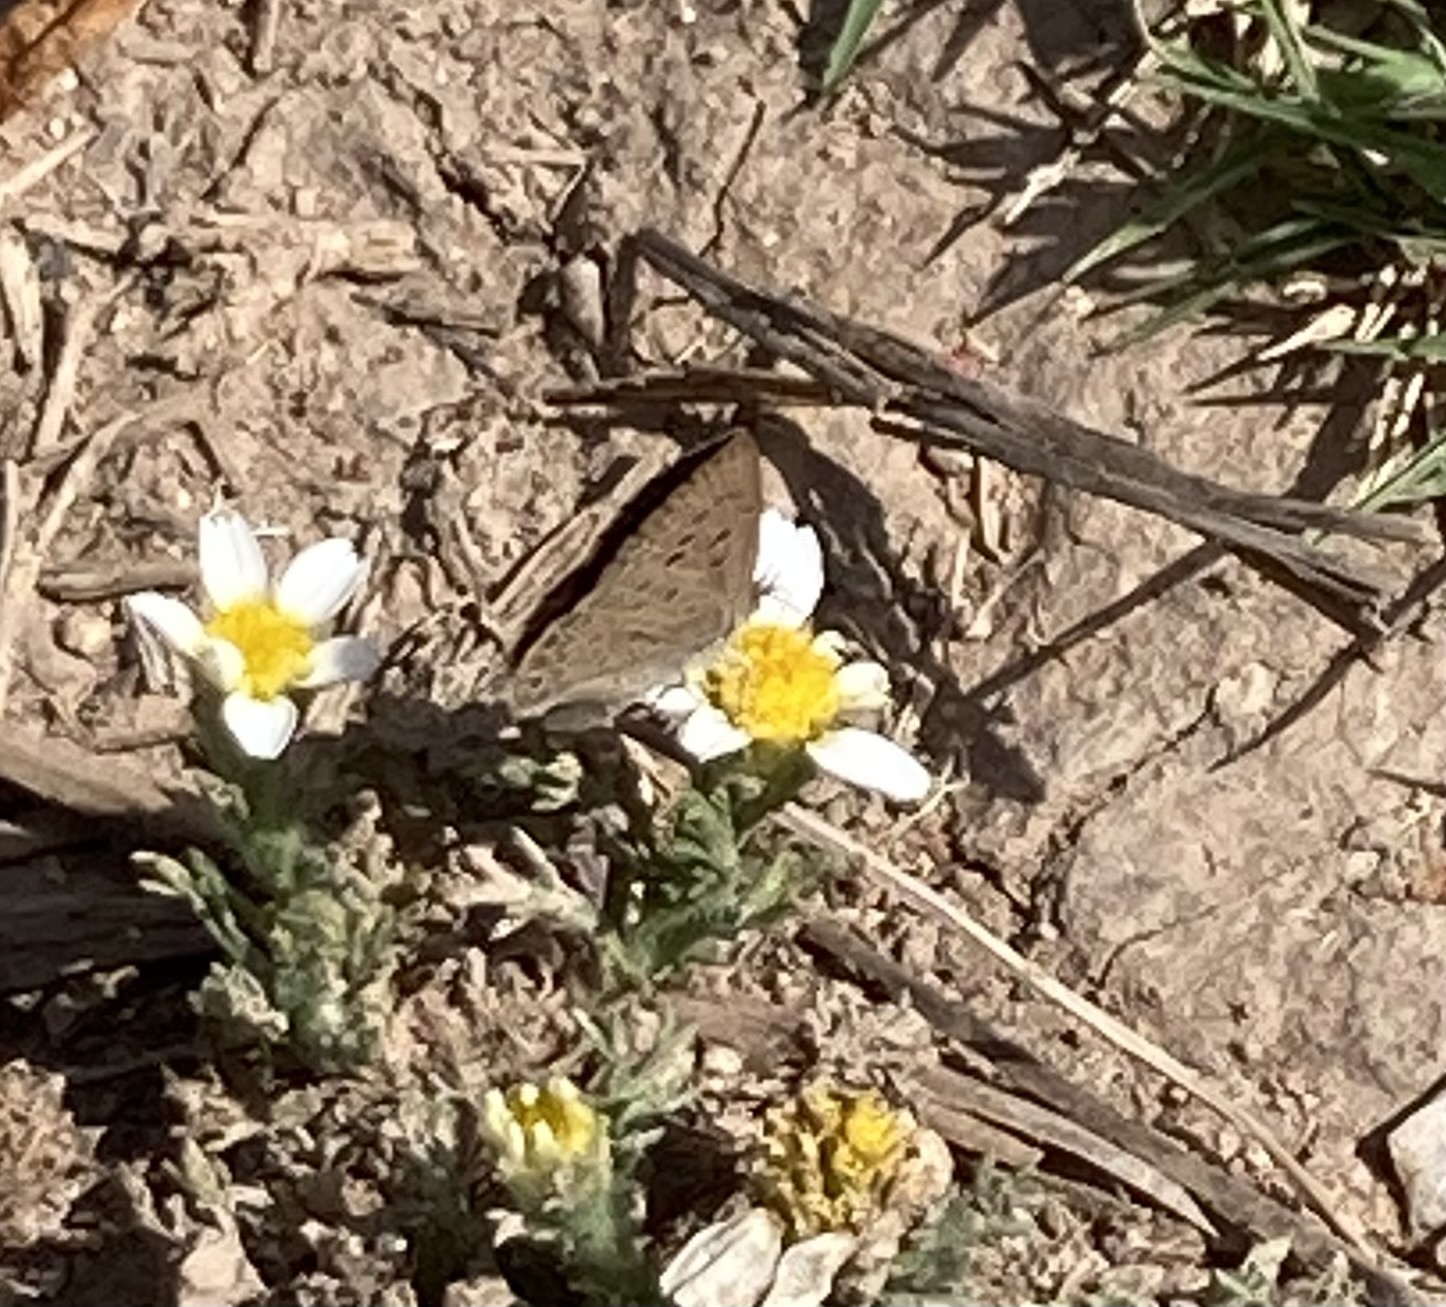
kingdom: Animalia
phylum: Arthropoda
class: Insecta
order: Lepidoptera
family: Lycaenidae
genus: Zizeeria
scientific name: Zizeeria knysna
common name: African grass blue
